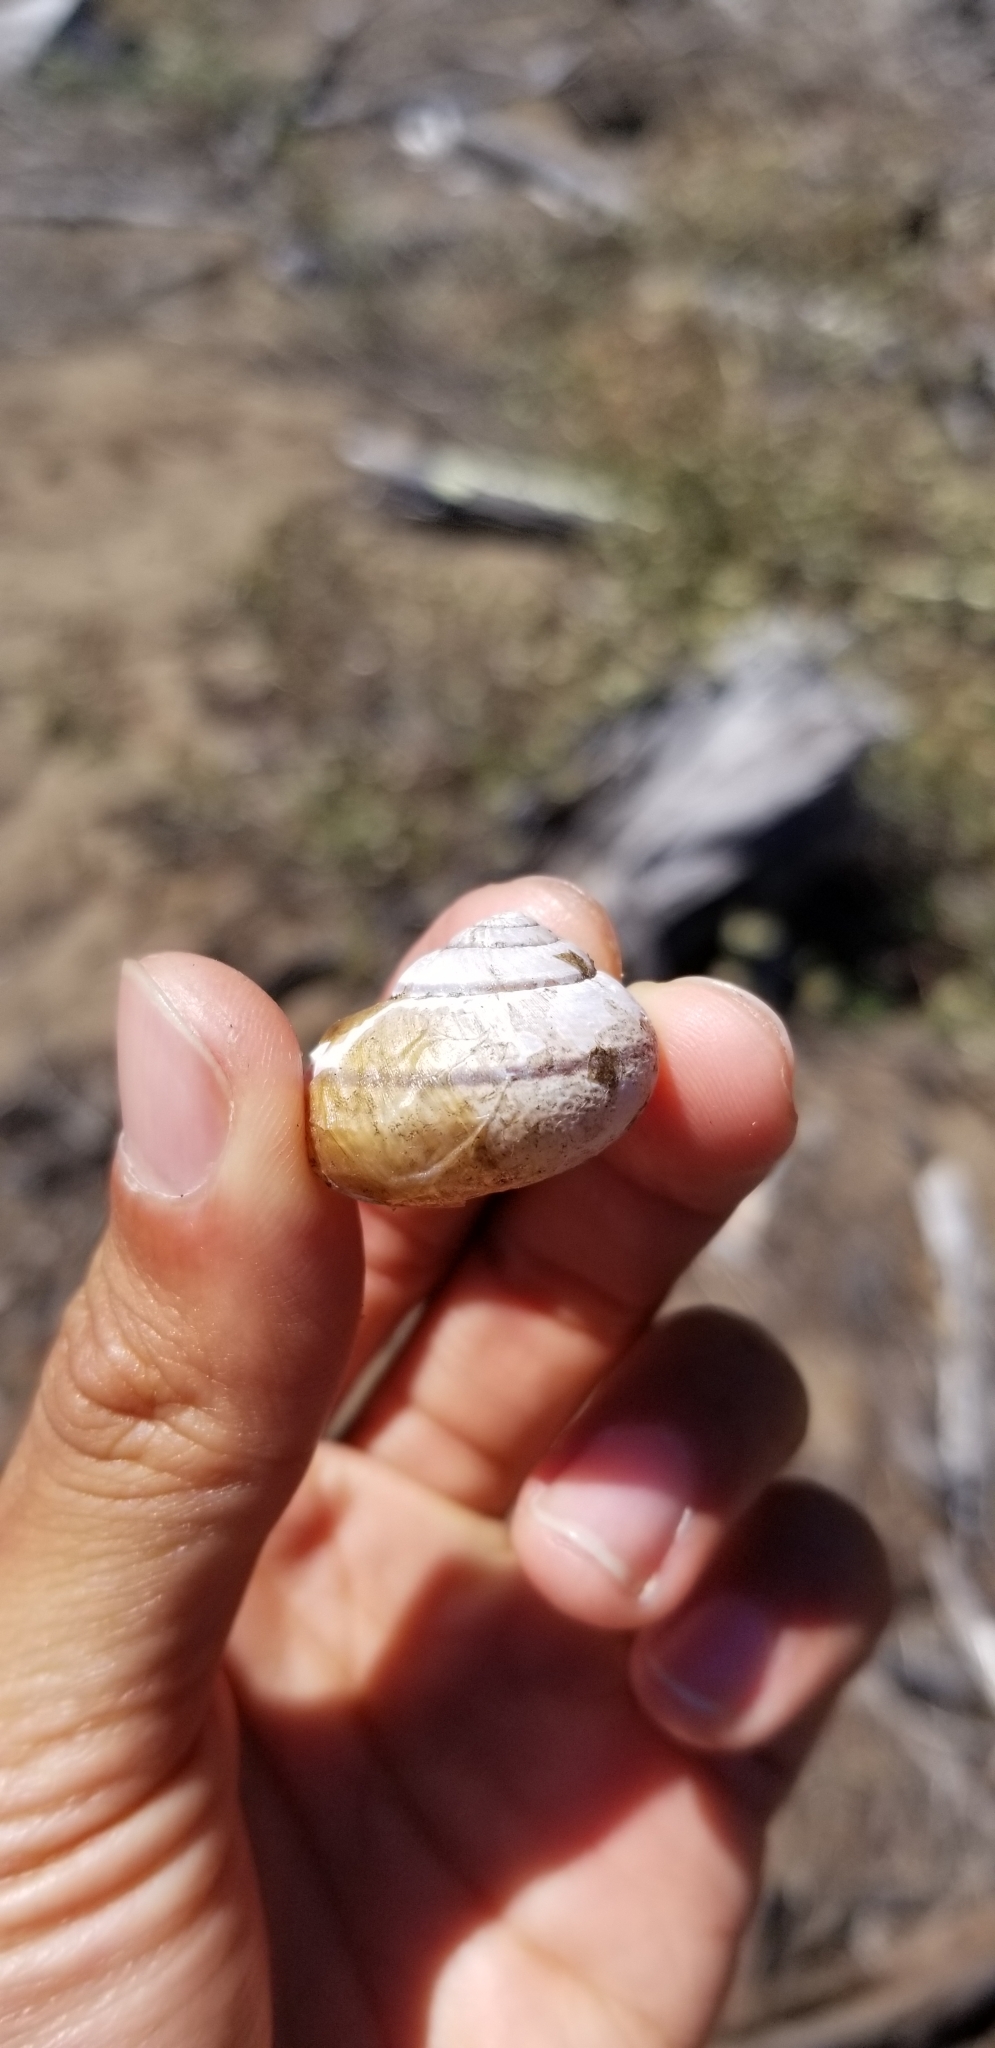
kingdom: Animalia
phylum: Mollusca
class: Gastropoda
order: Stylommatophora
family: Xanthonychidae
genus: Helminthoglypta
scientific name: Helminthoglypta nickliniana
